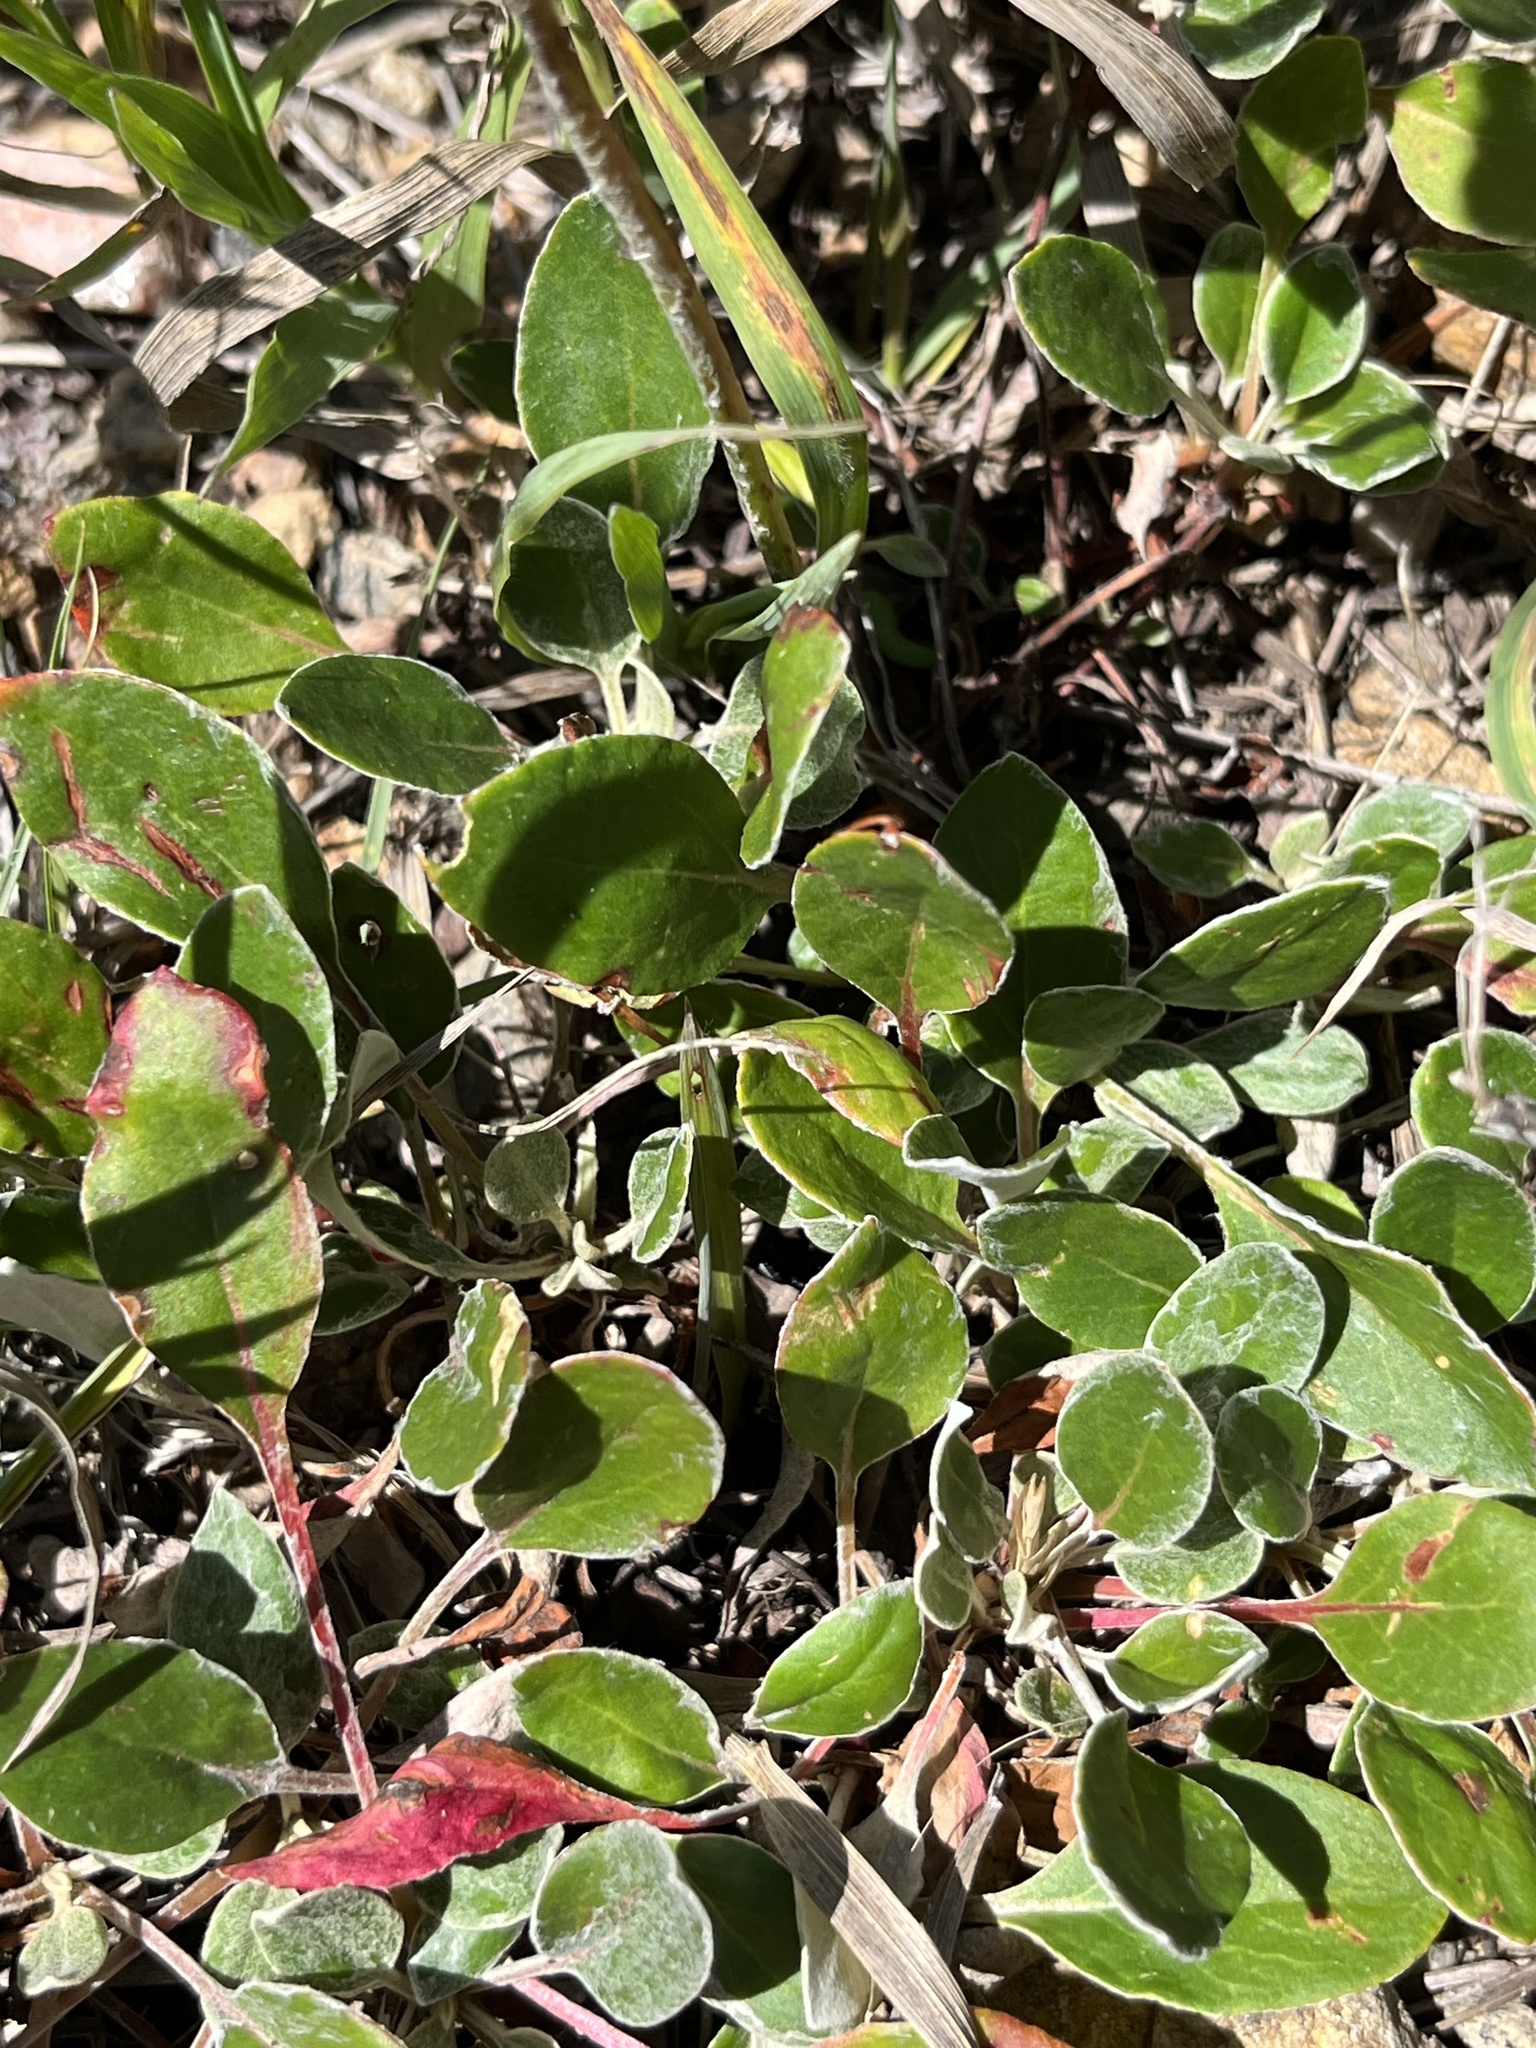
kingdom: Plantae
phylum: Tracheophyta
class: Magnoliopsida
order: Caryophyllales
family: Polygonaceae
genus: Eriogonum
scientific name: Eriogonum umbellatum
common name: Sulfur-buckwheat
